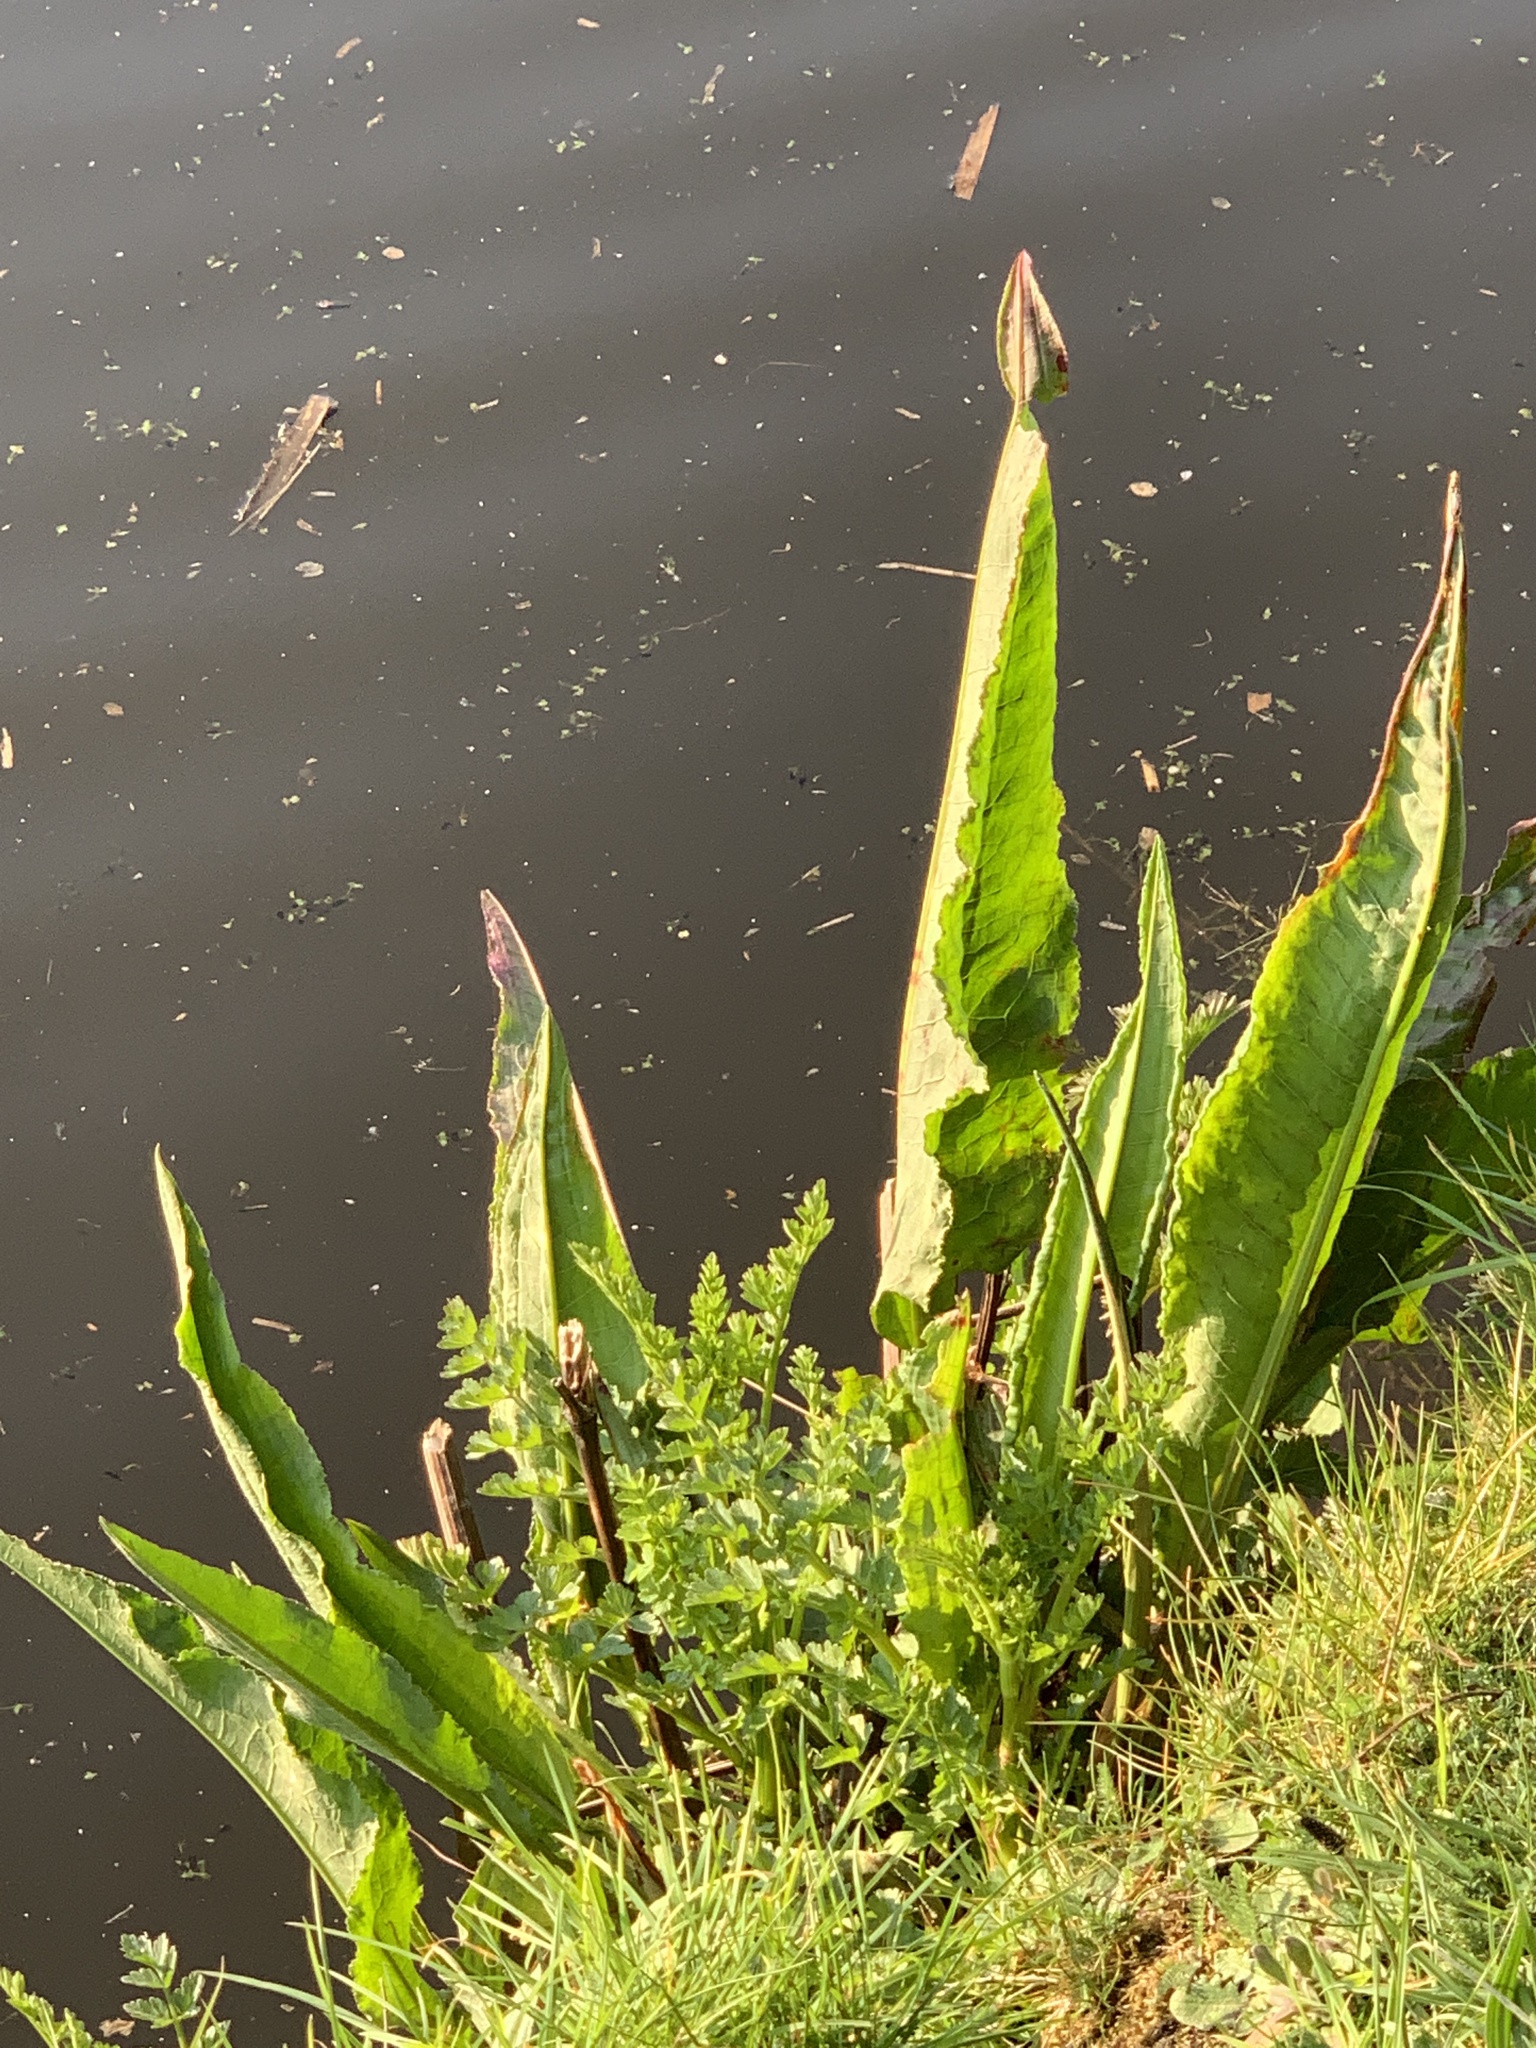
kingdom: Plantae
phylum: Tracheophyta
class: Magnoliopsida
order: Caryophyllales
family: Polygonaceae
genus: Rumex
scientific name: Rumex hydrolapathum
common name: Water dock
